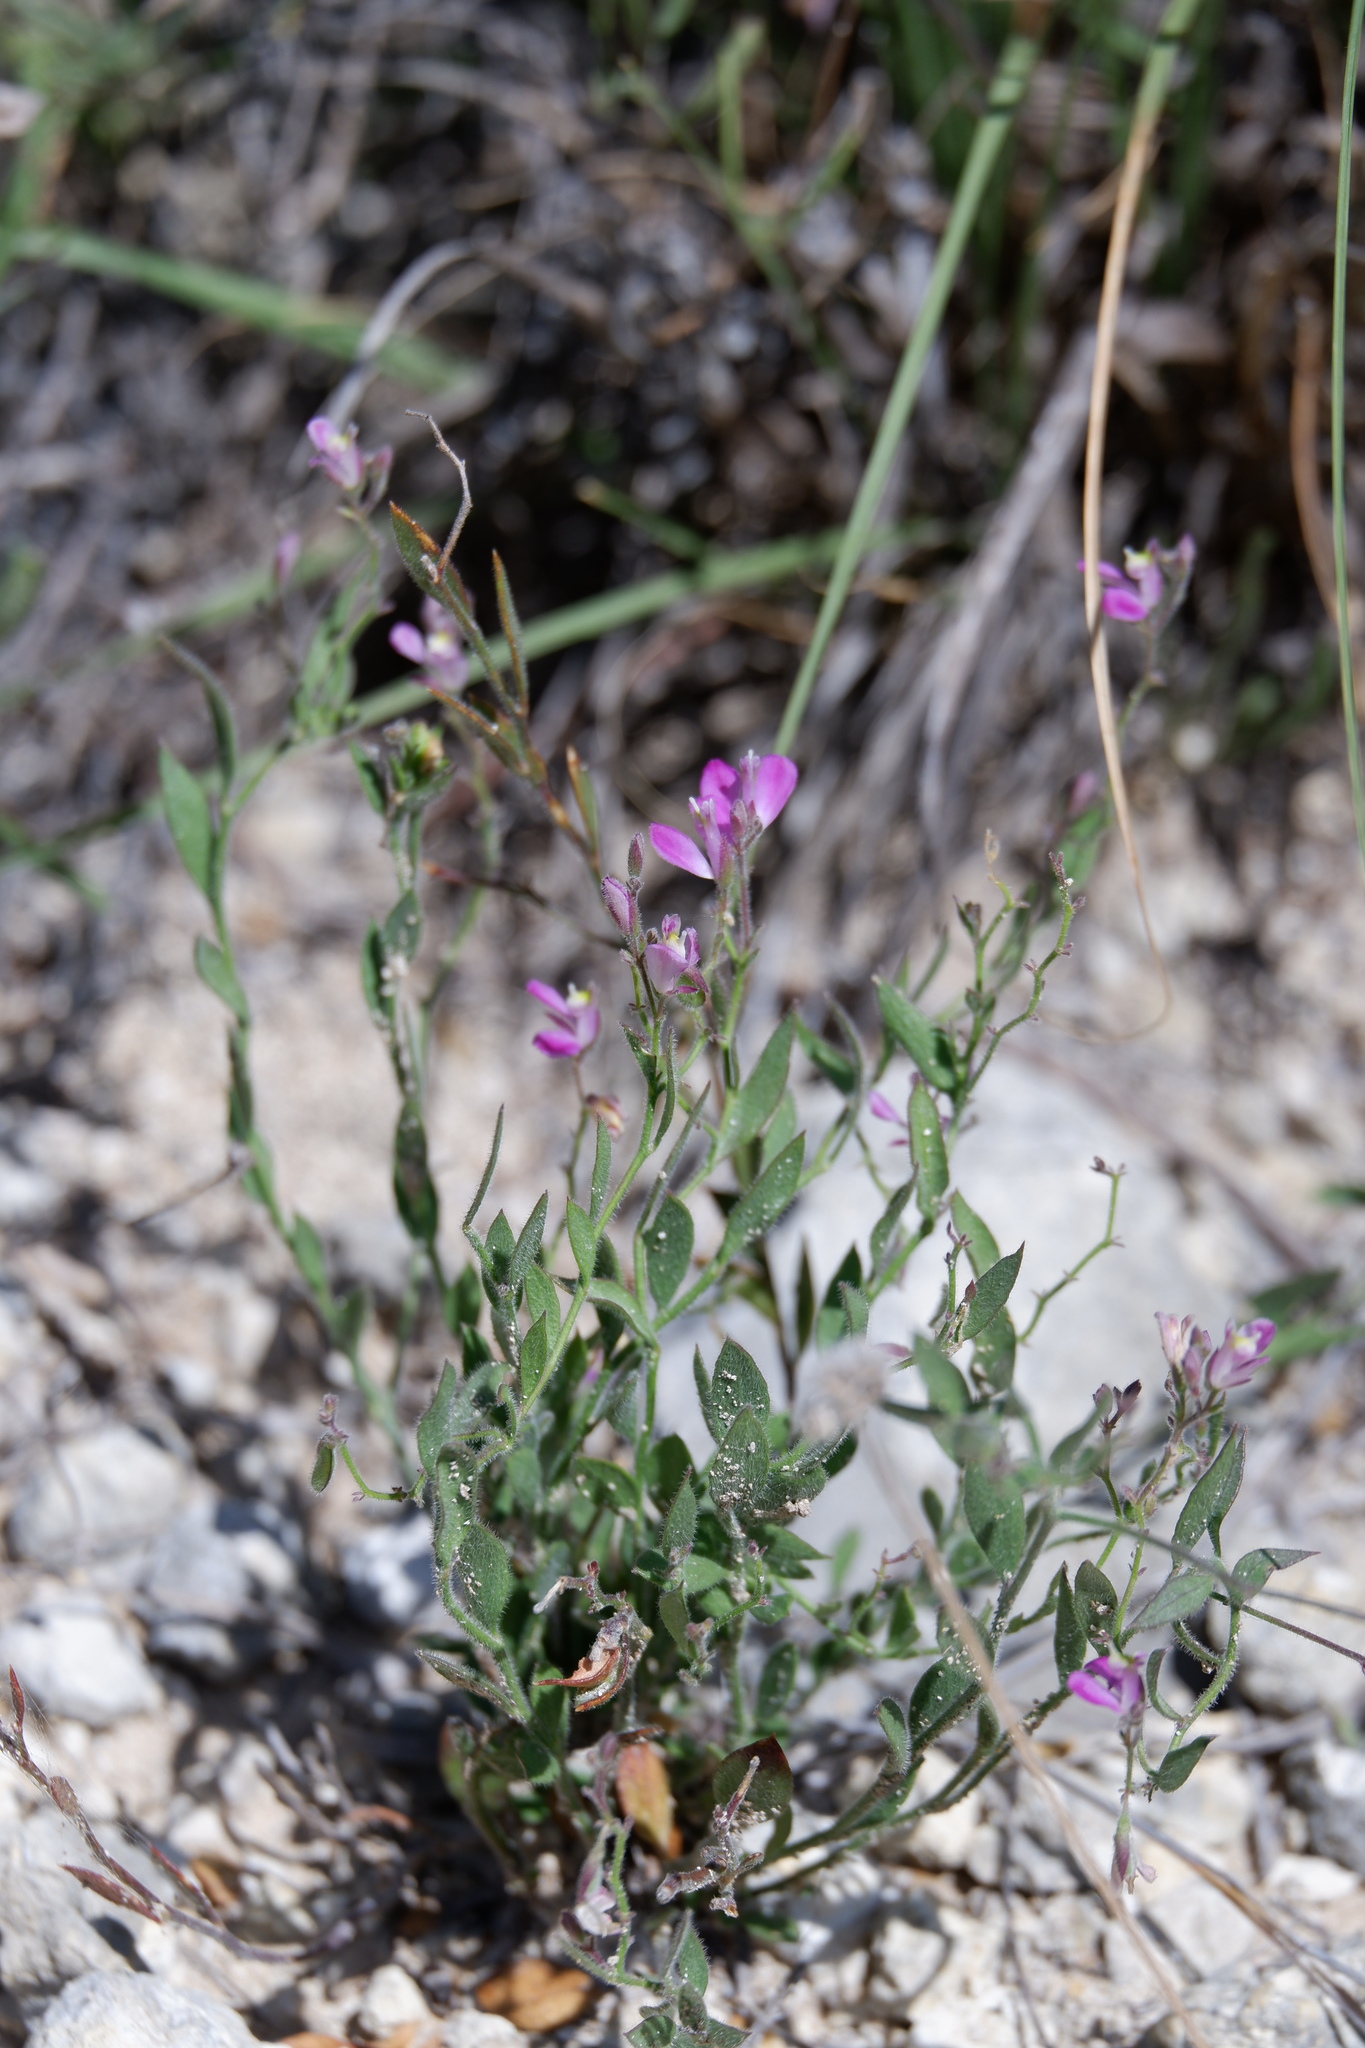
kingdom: Plantae
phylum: Tracheophyta
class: Magnoliopsida
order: Fabales
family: Polygalaceae
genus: Rhinotropis
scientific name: Rhinotropis lindheimeri
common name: Shrubby milkwort
